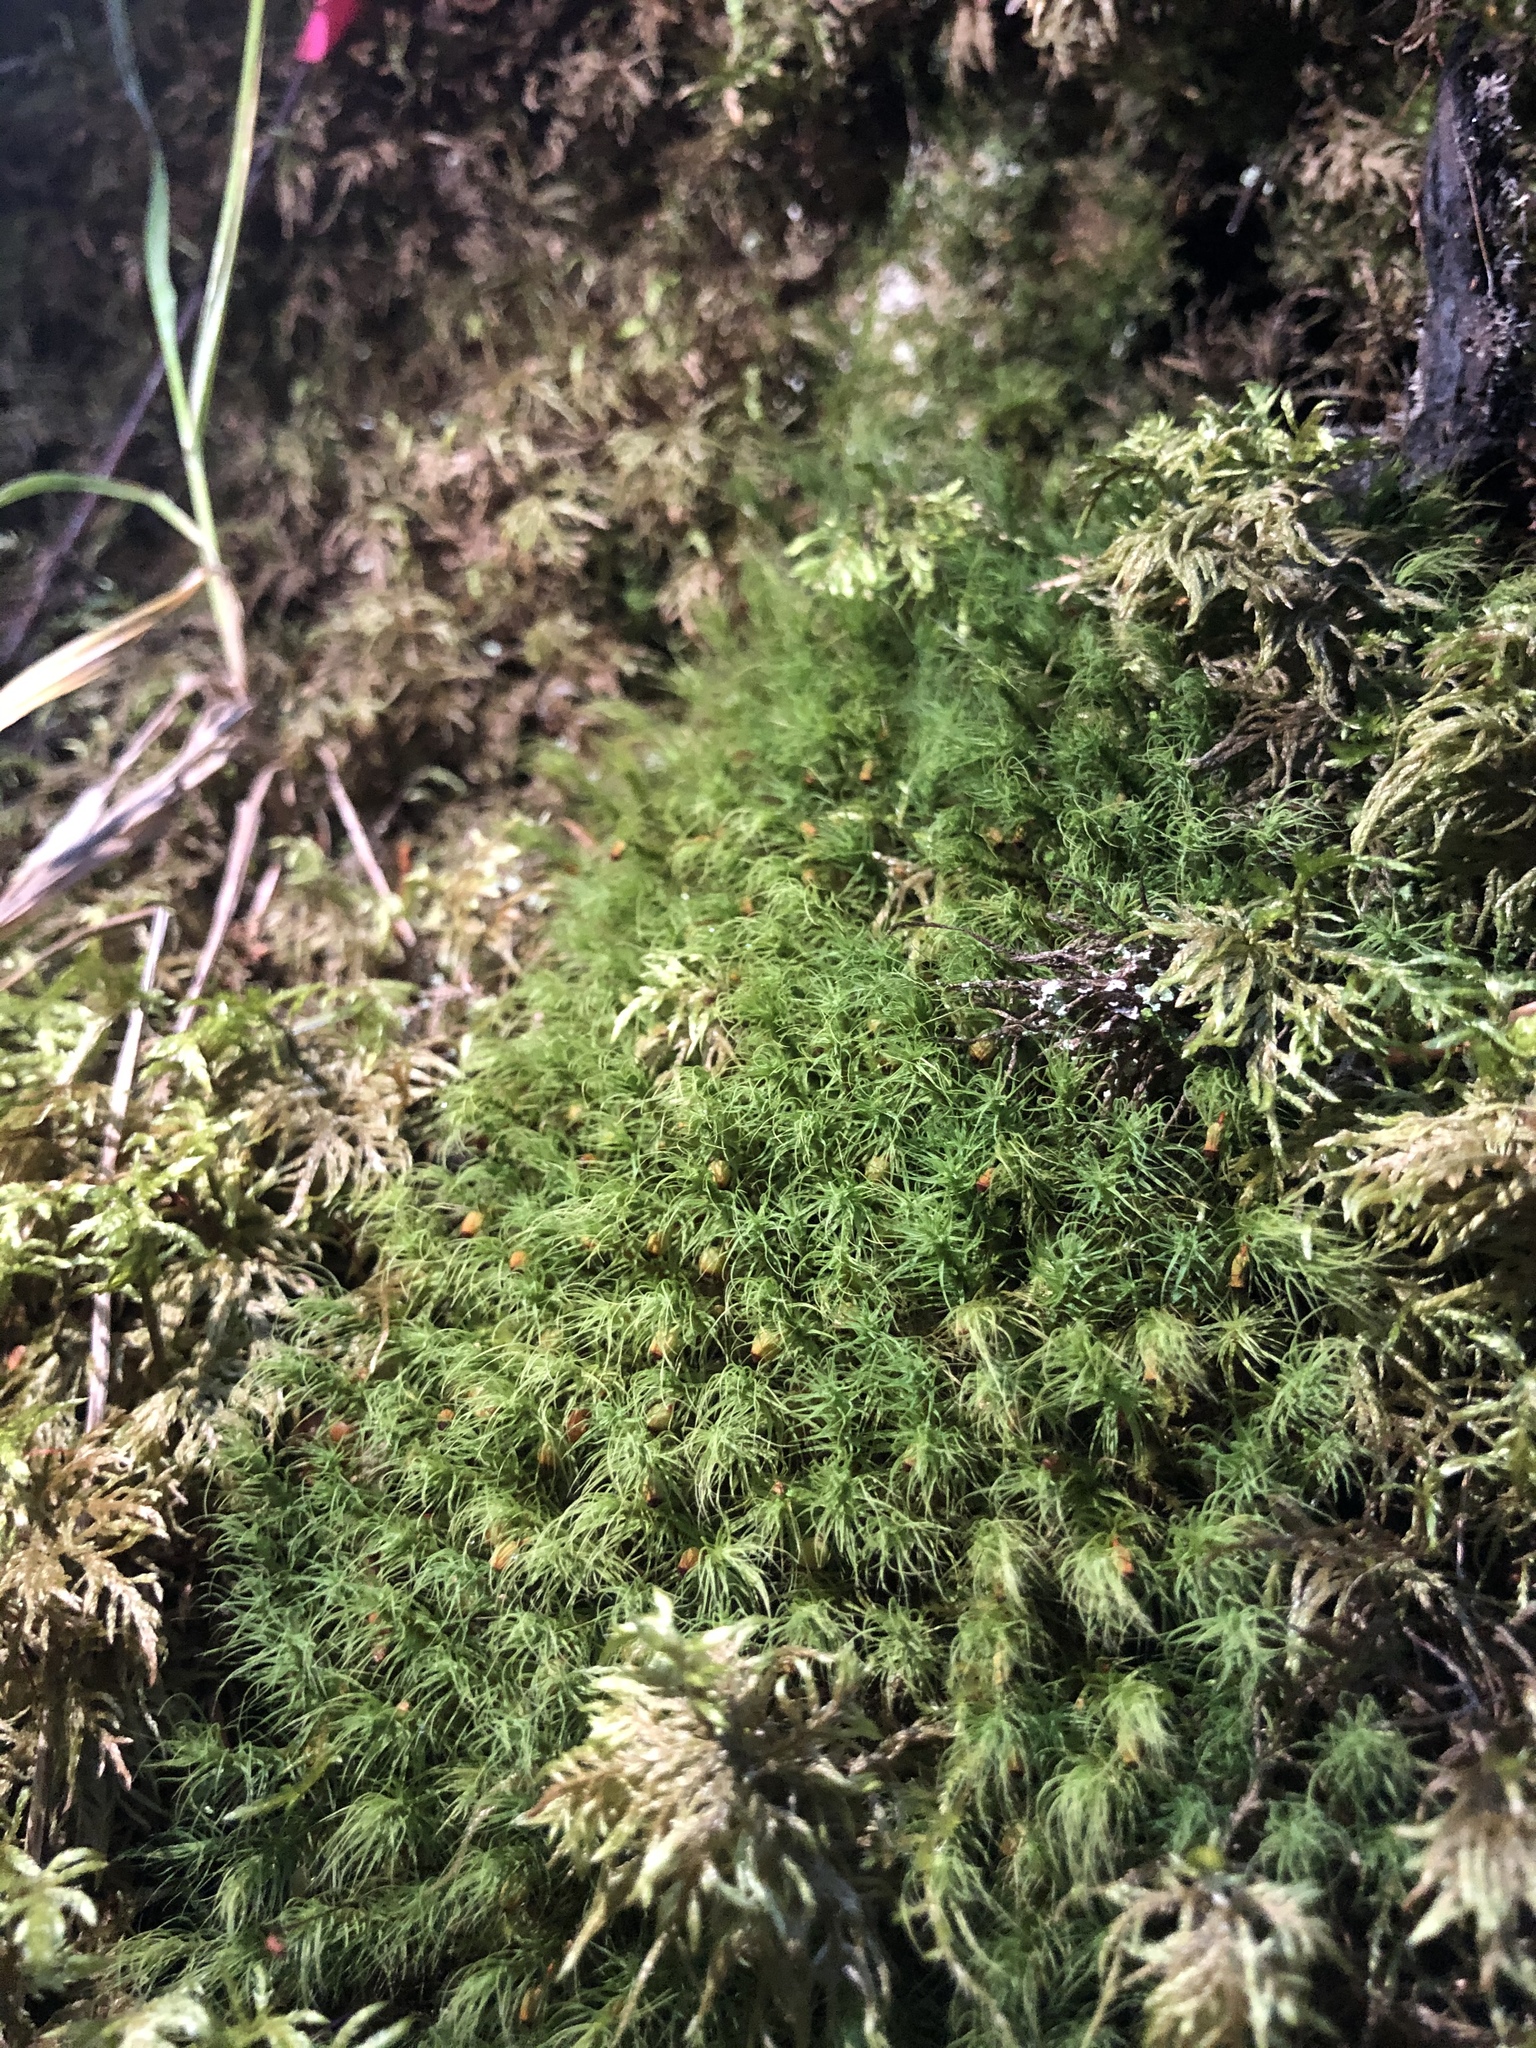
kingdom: Plantae
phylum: Bryophyta
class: Bryopsida
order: Bartramiales
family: Bartramiaceae
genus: Bartramia
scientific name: Bartramia halleriana
